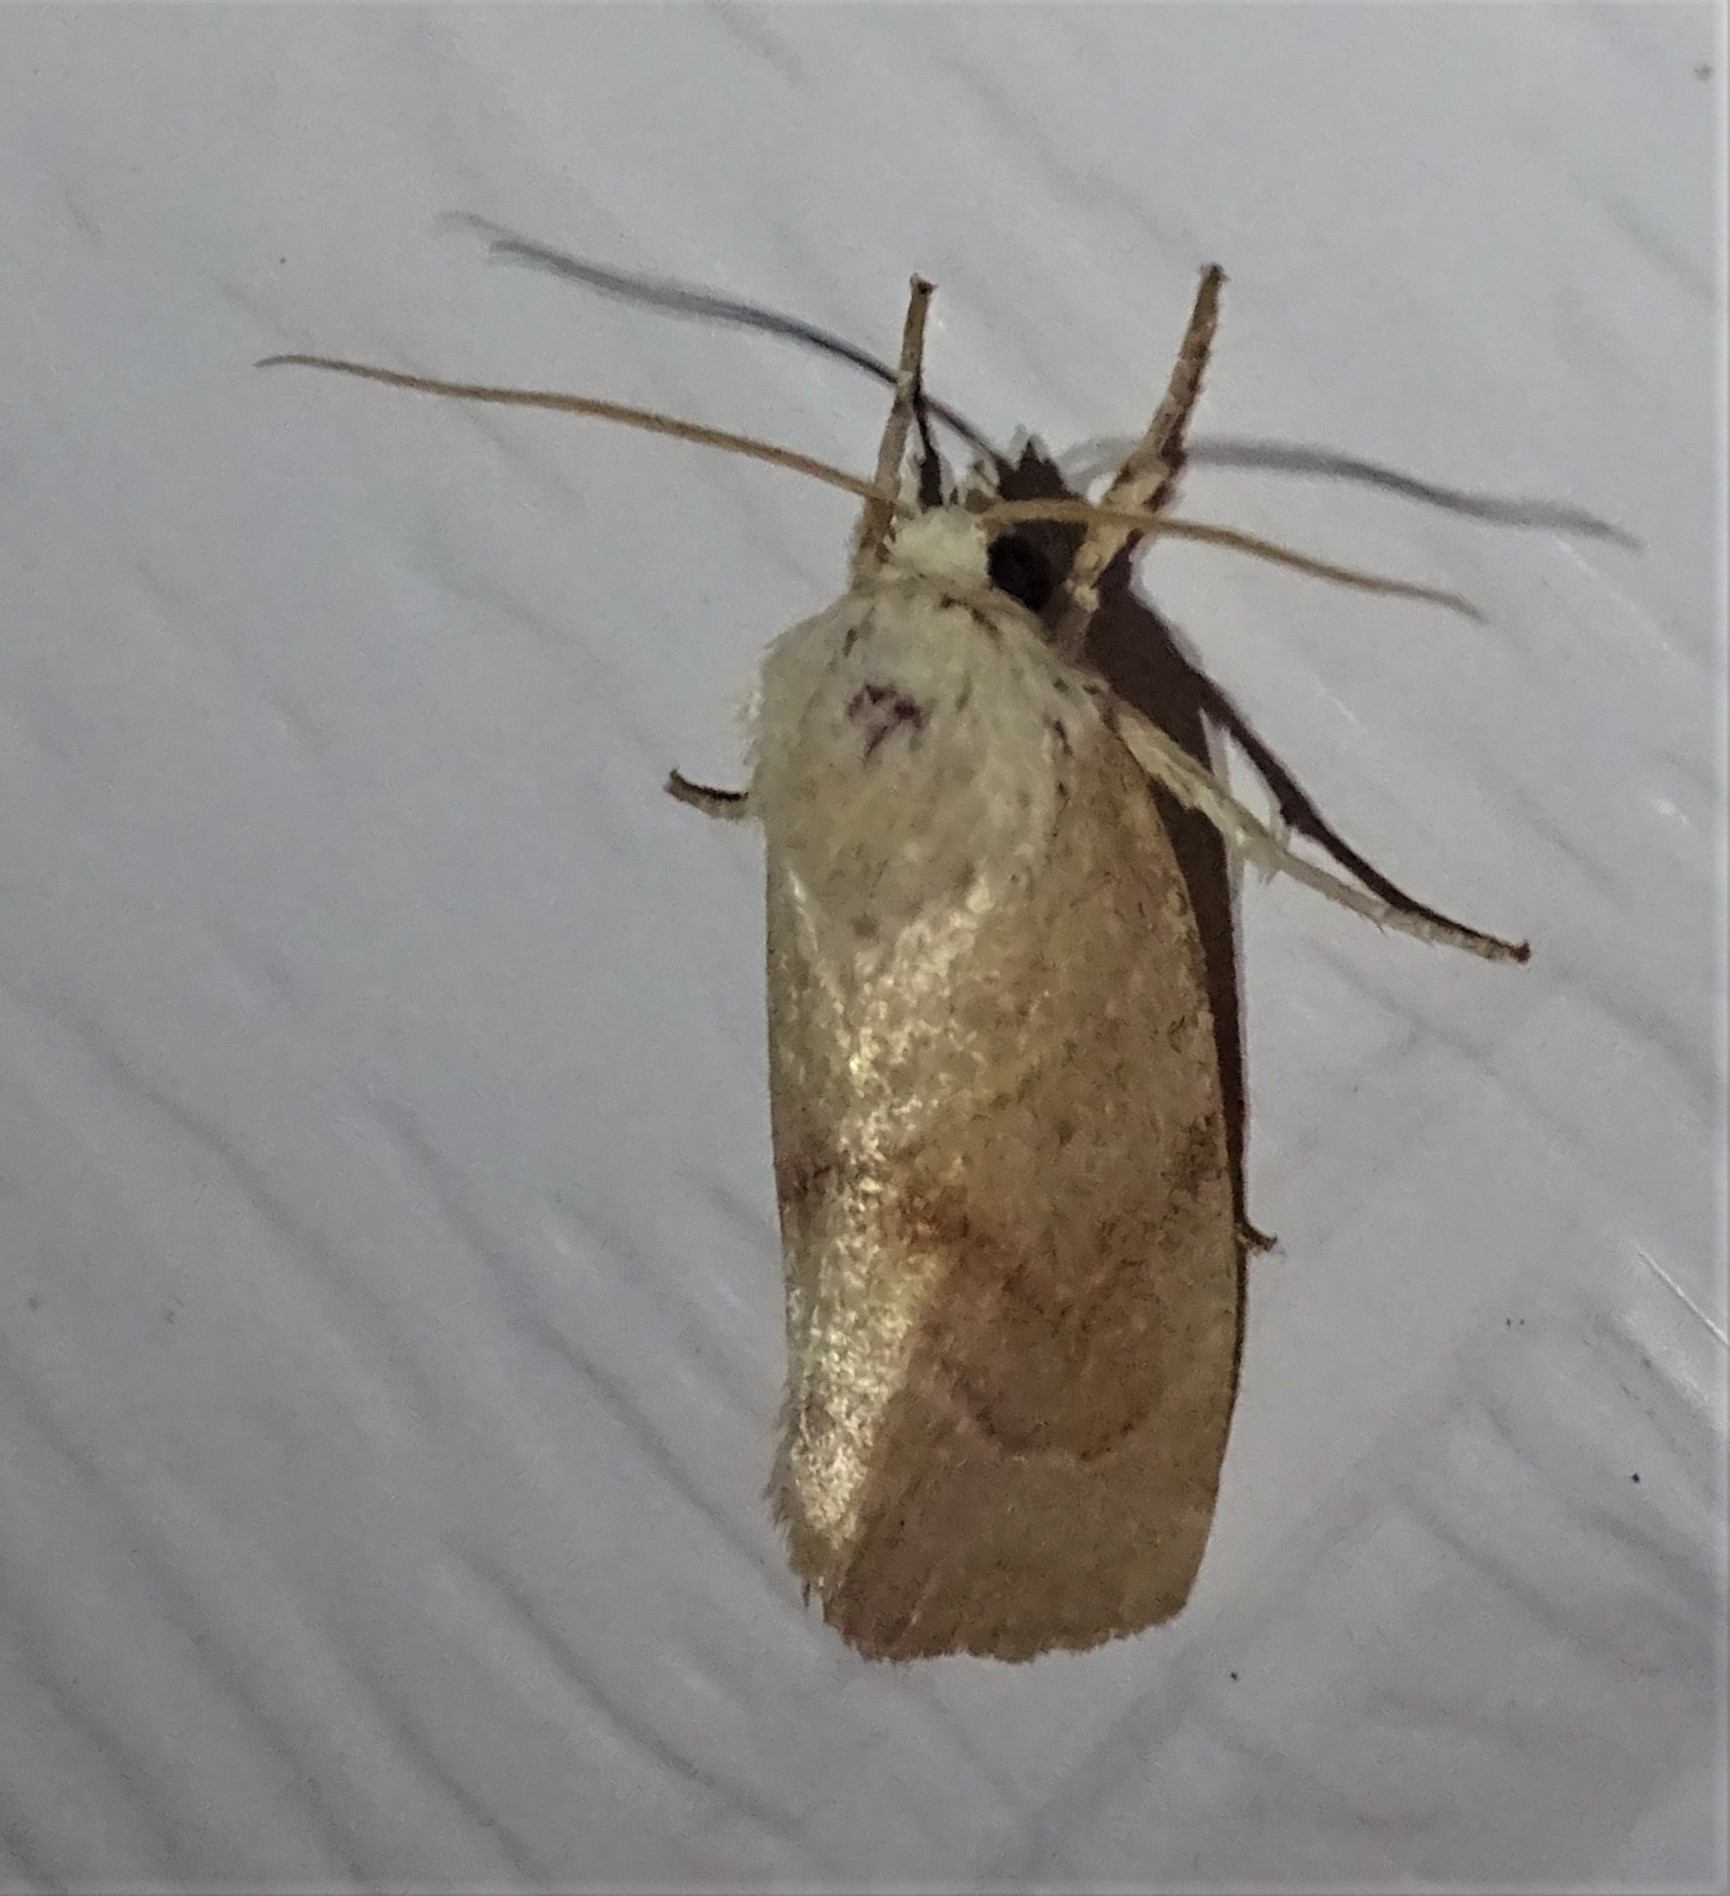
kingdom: Animalia
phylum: Arthropoda
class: Insecta
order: Lepidoptera
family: Noctuidae
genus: Cosmia
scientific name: Cosmia calami
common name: American dun-bar moth
